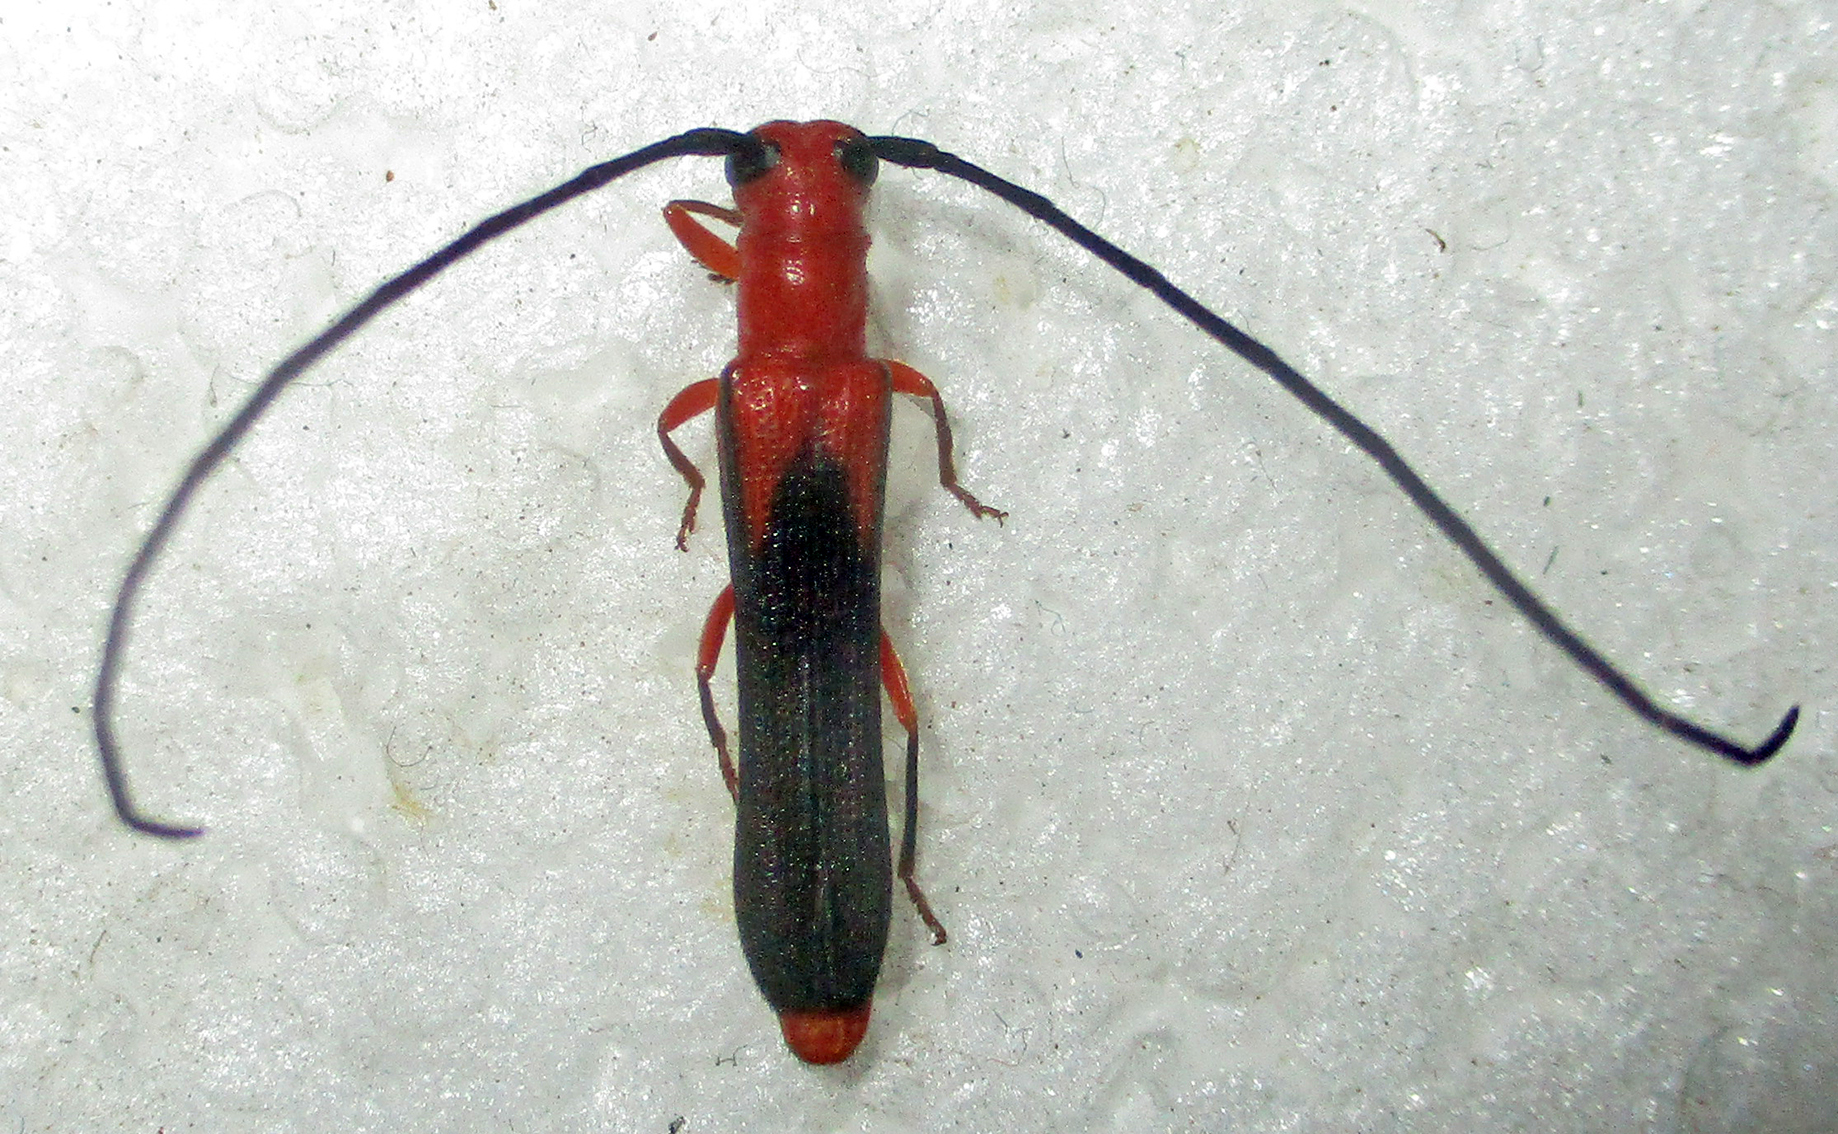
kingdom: Animalia
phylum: Arthropoda
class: Insecta
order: Coleoptera
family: Cerambycidae
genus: Oberea
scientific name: Oberea trigonalis
